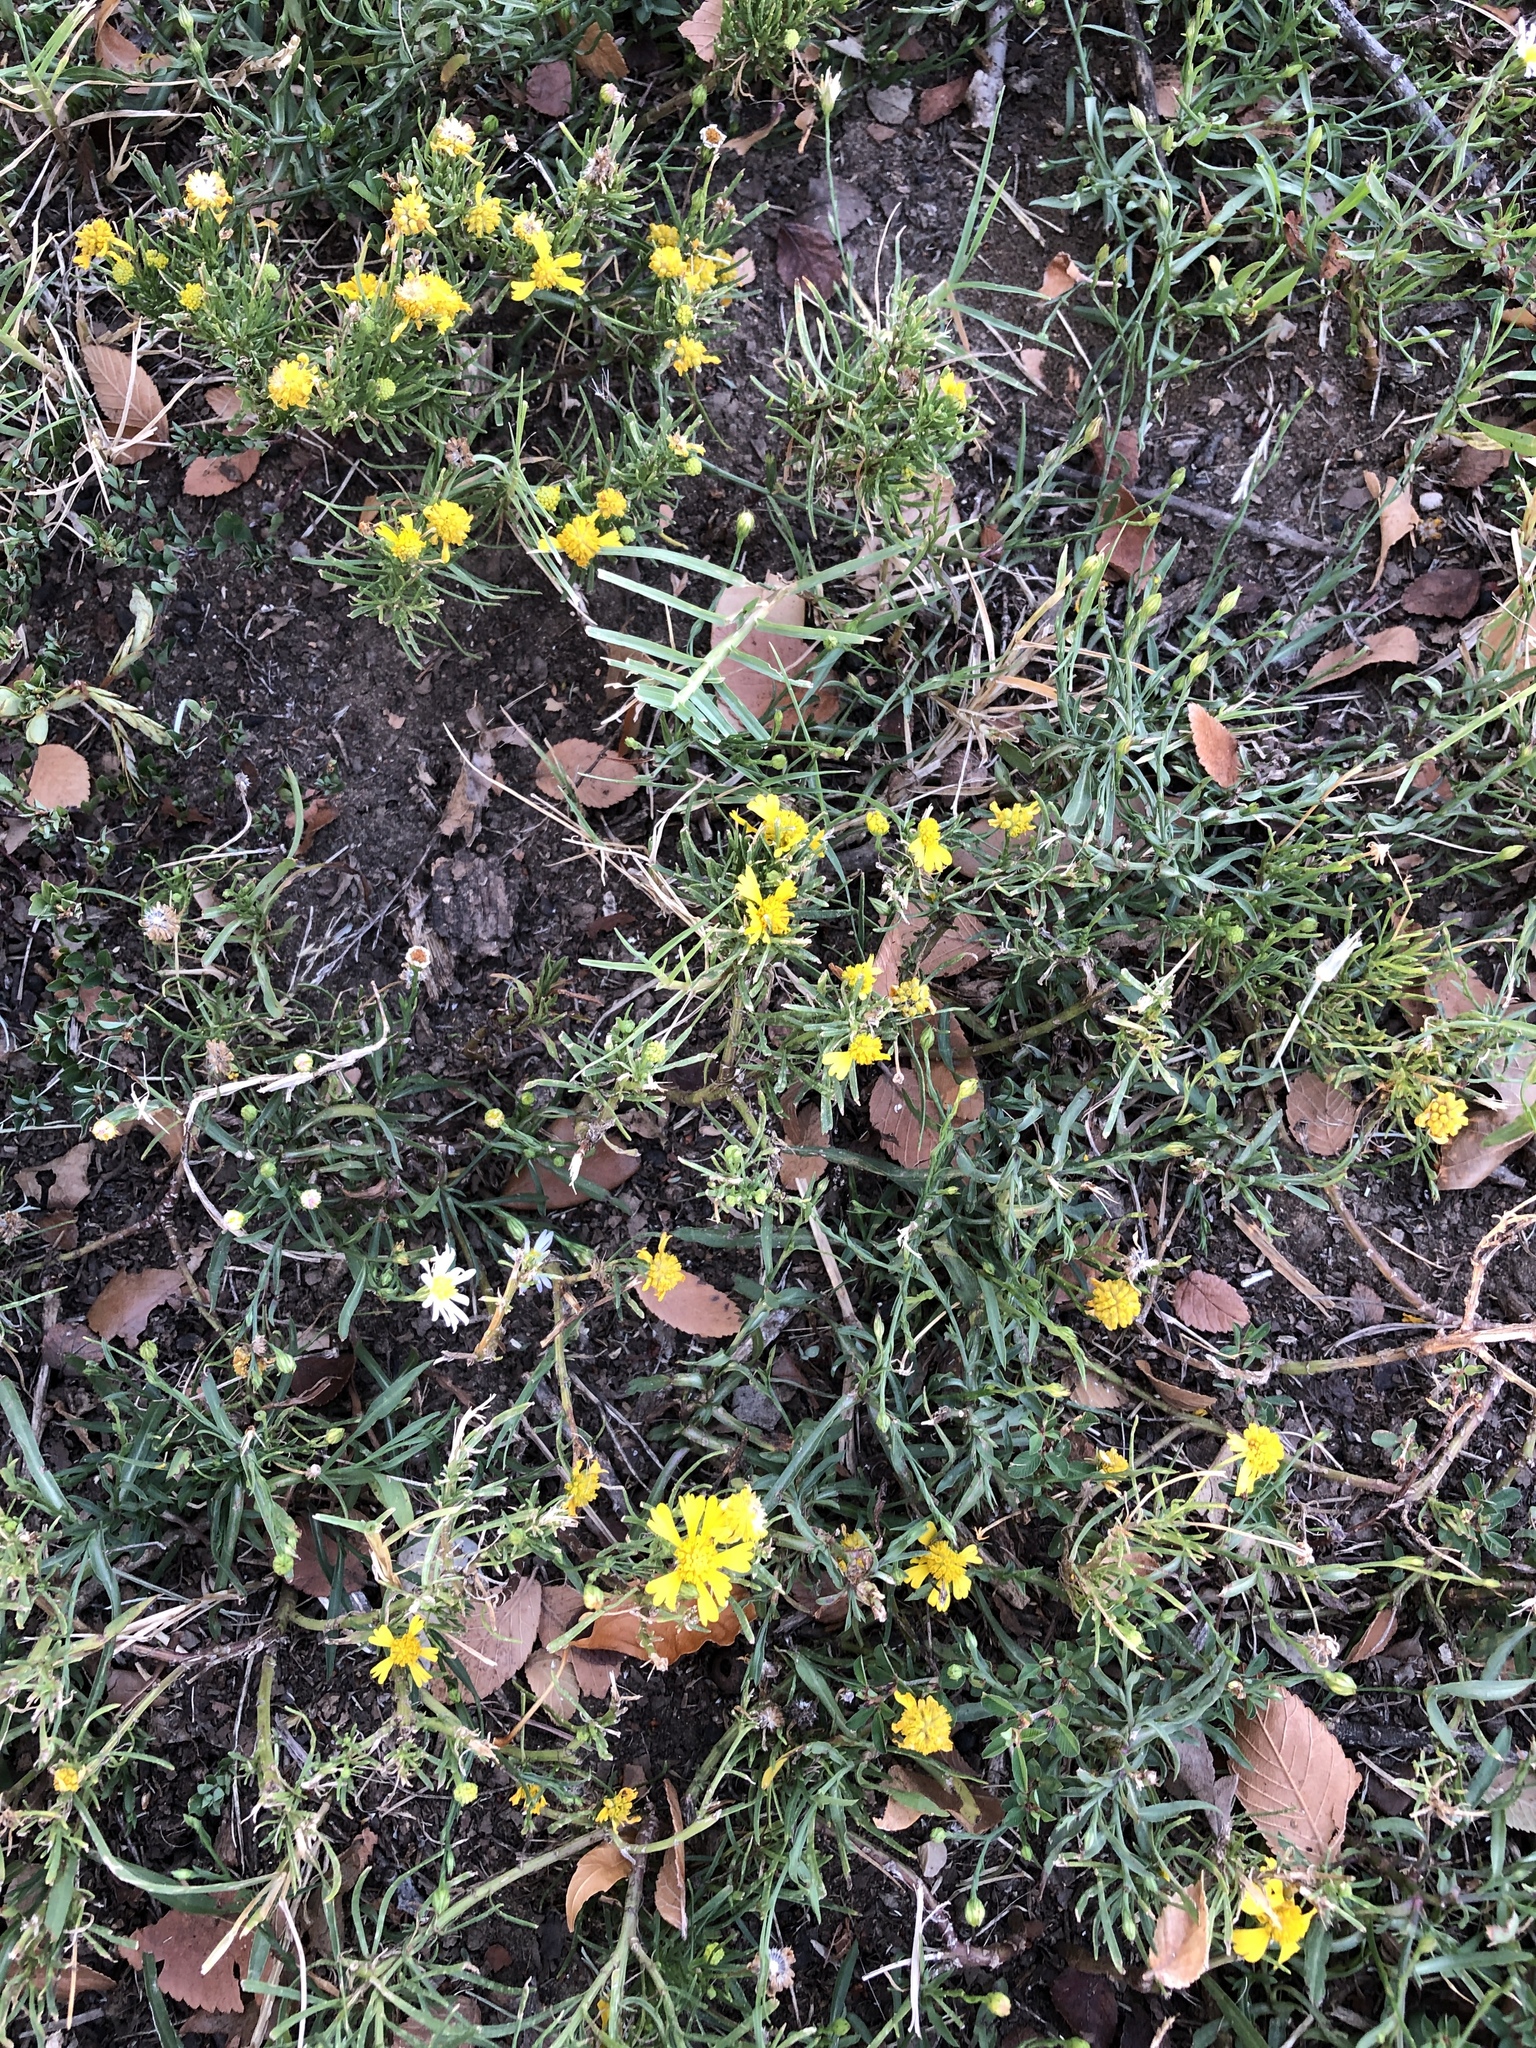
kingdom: Plantae
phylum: Tracheophyta
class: Magnoliopsida
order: Asterales
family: Asteraceae
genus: Helenium
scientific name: Helenium amarum
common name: Bitter sneezeweed
